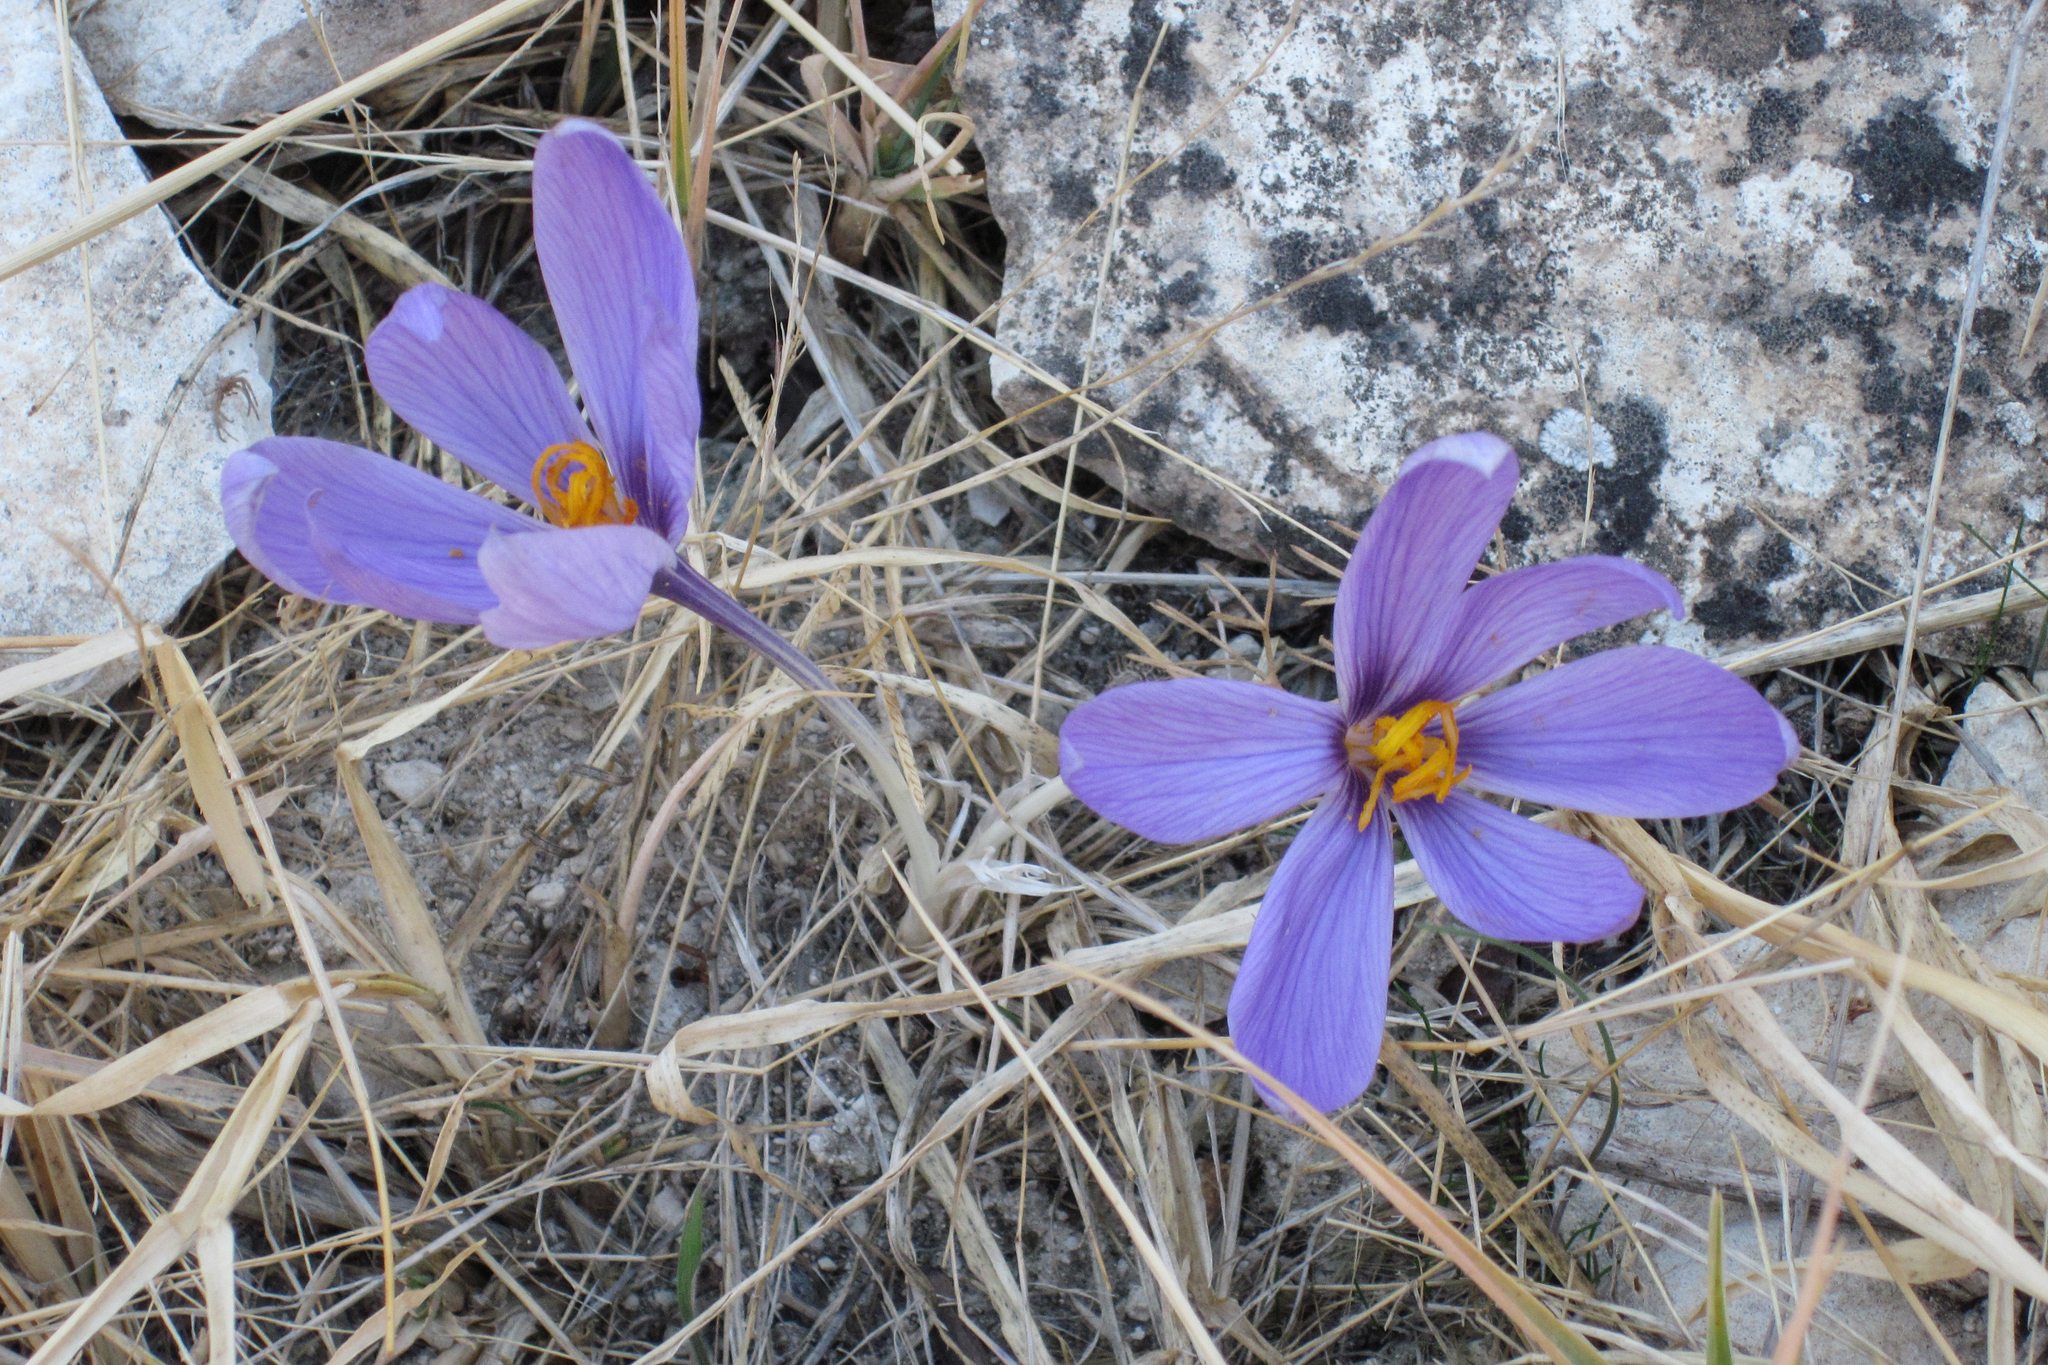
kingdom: Plantae
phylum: Tracheophyta
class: Liliopsida
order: Asparagales
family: Iridaceae
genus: Crocus
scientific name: Crocus cancellatus
